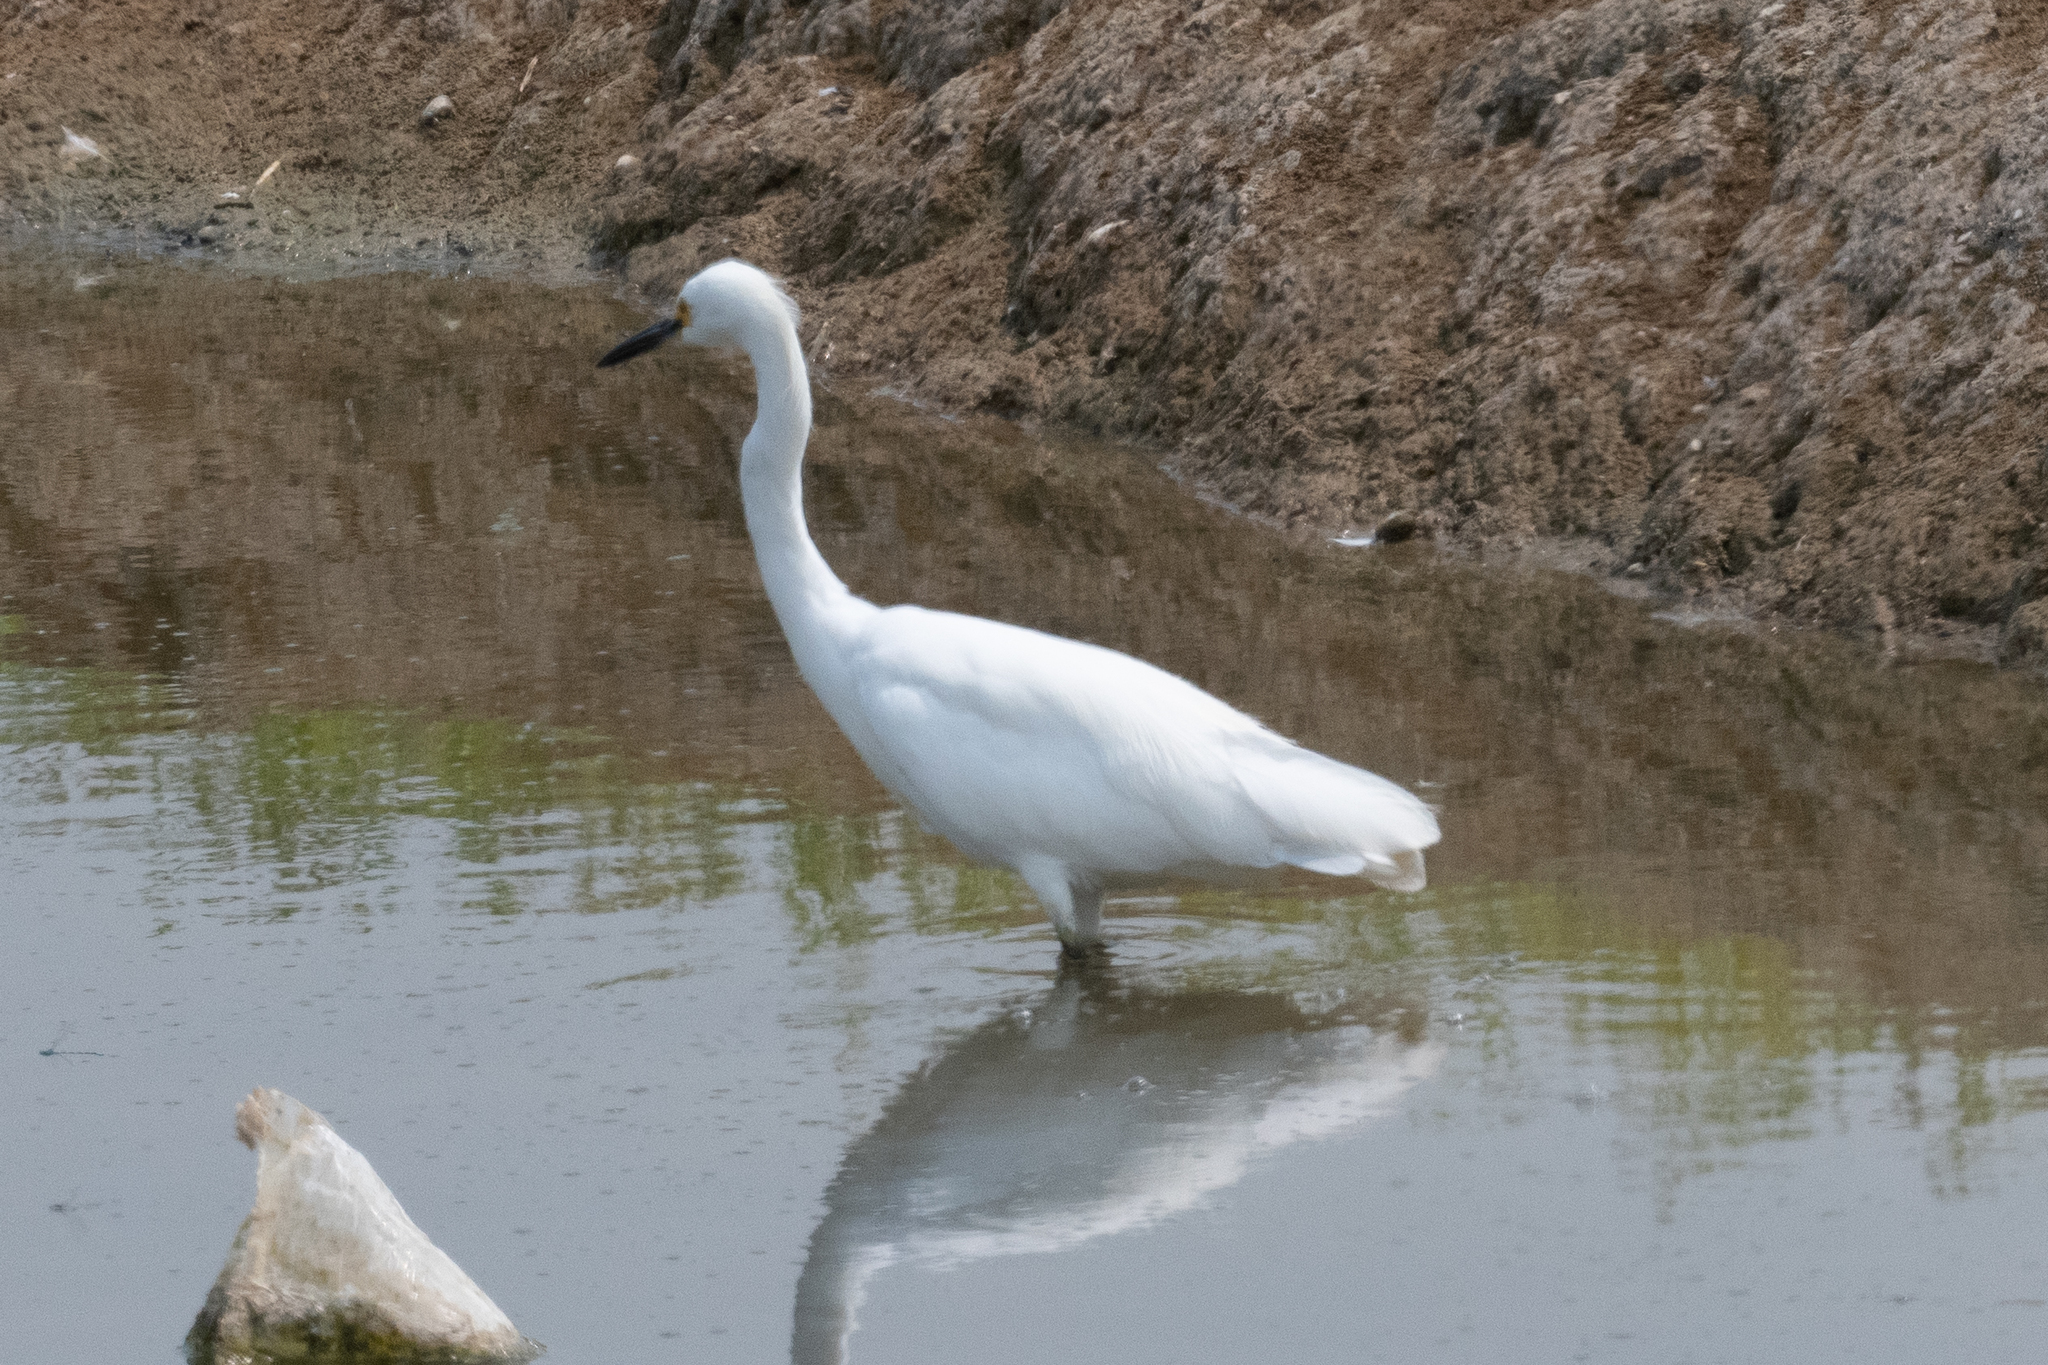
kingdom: Animalia
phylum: Chordata
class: Aves
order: Pelecaniformes
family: Ardeidae
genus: Egretta
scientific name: Egretta thula
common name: Snowy egret
